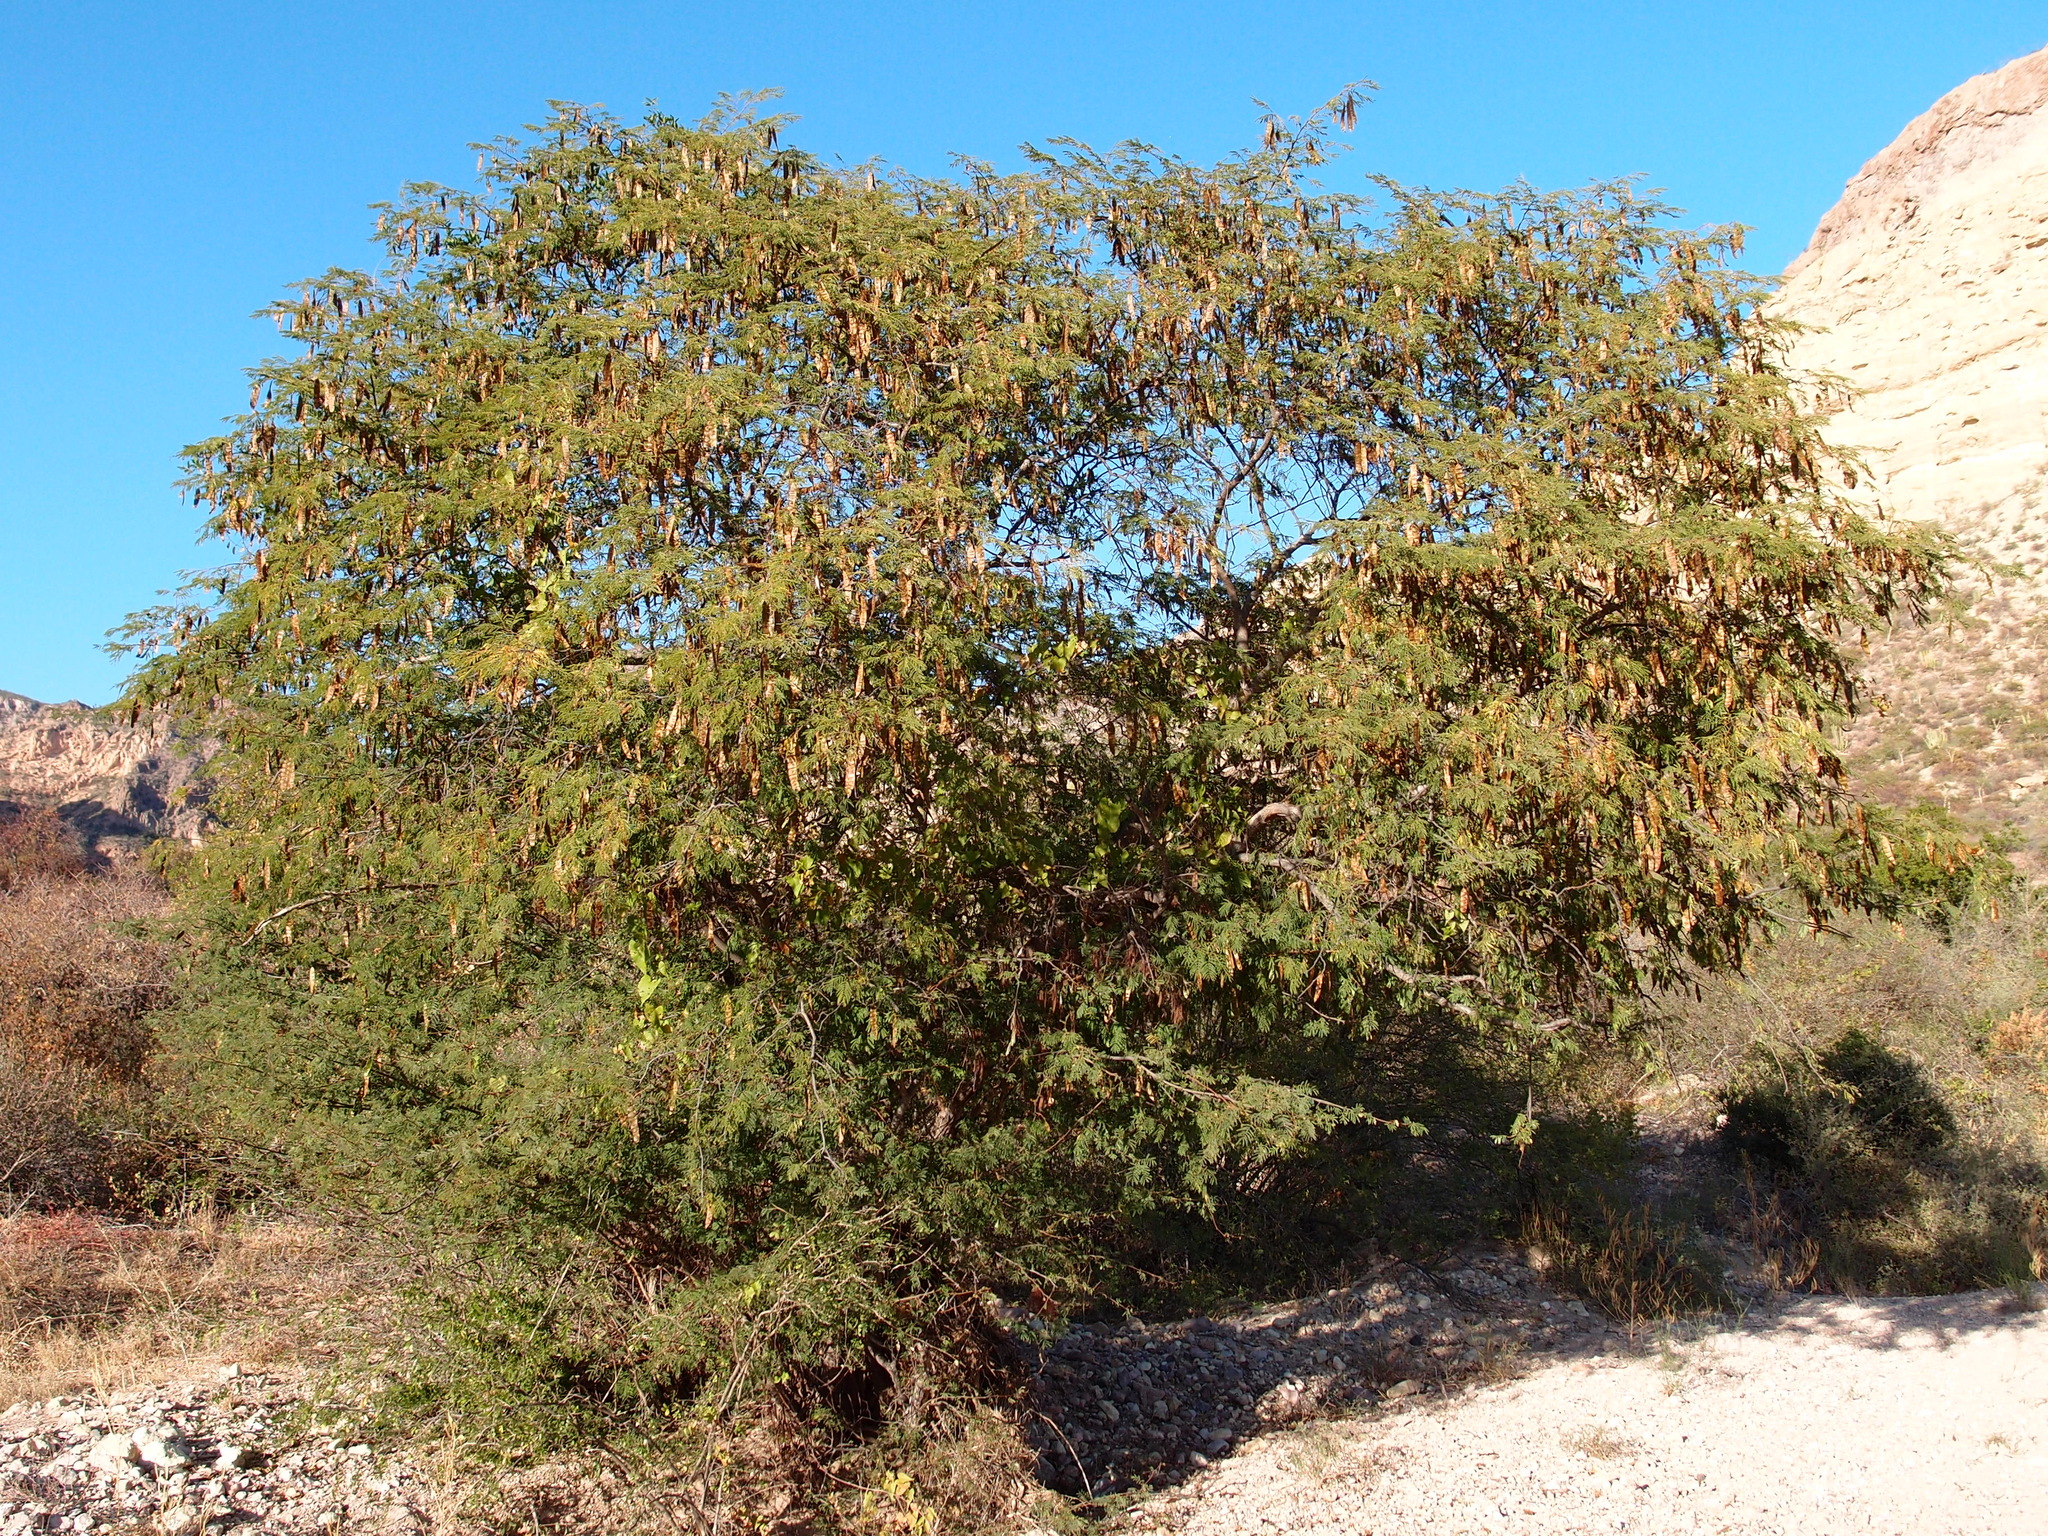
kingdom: Plantae
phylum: Tracheophyta
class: Magnoliopsida
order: Fabales
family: Fabaceae
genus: Lysiloma
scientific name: Lysiloma divaricatum
